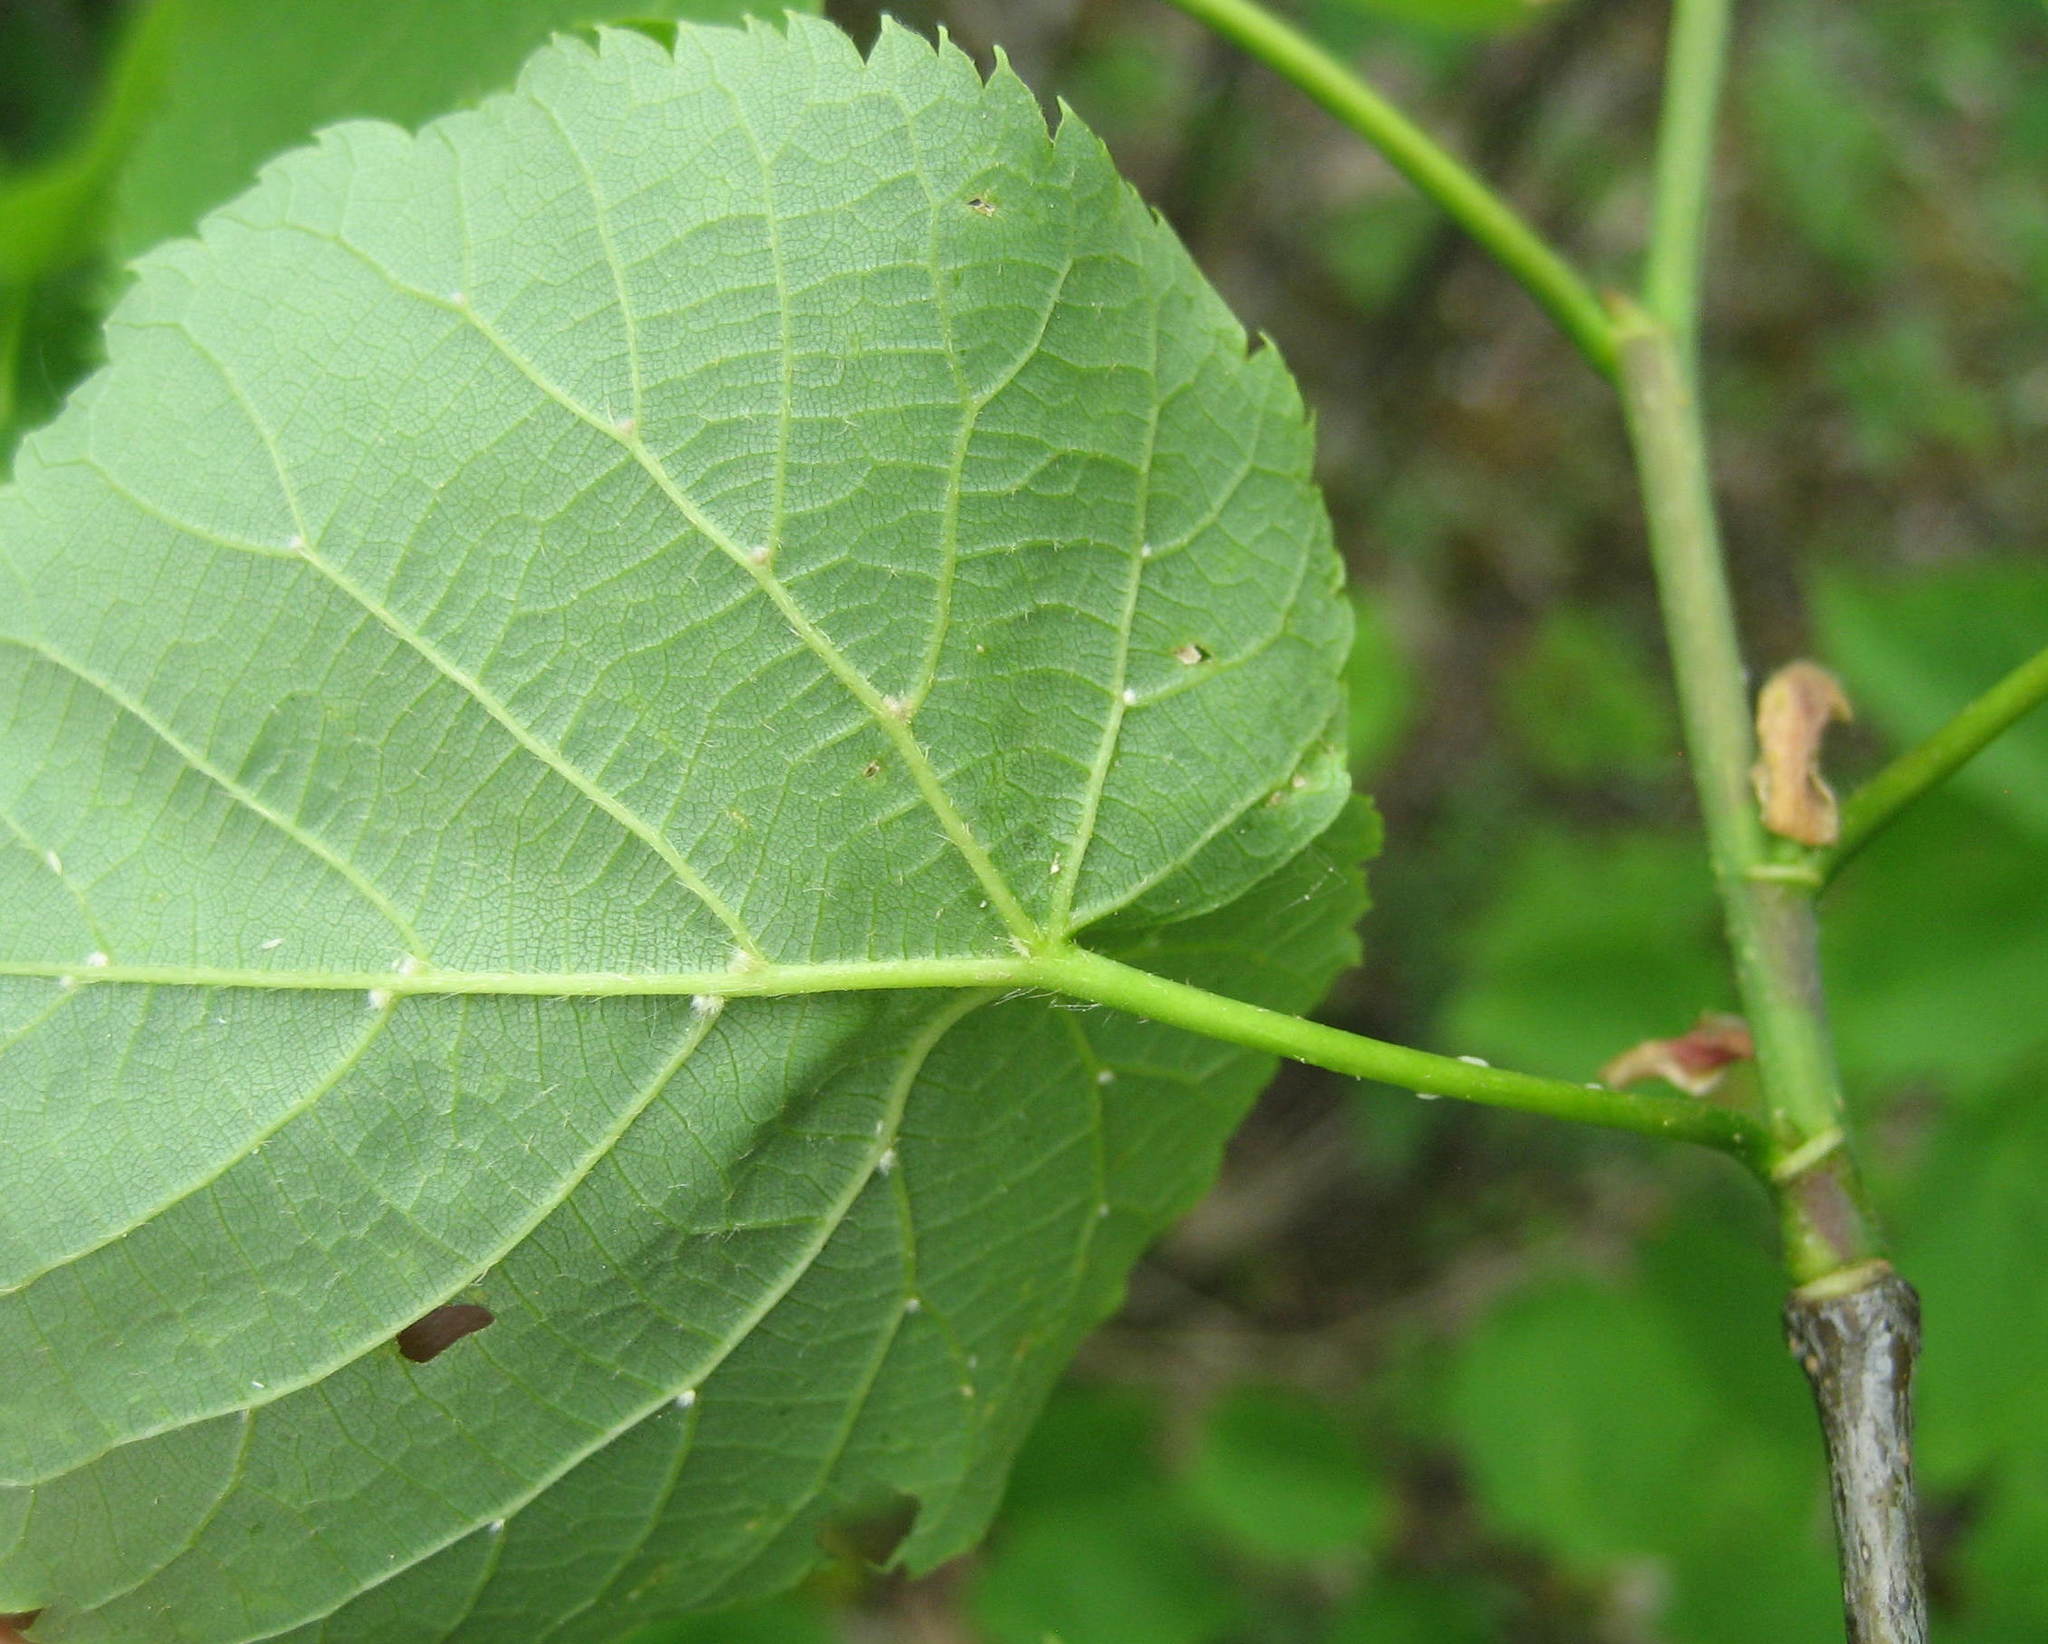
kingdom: Plantae
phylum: Tracheophyta
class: Magnoliopsida
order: Malvales
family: Malvaceae
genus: Tilia
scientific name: Tilia cordata
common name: Small-leaved lime
